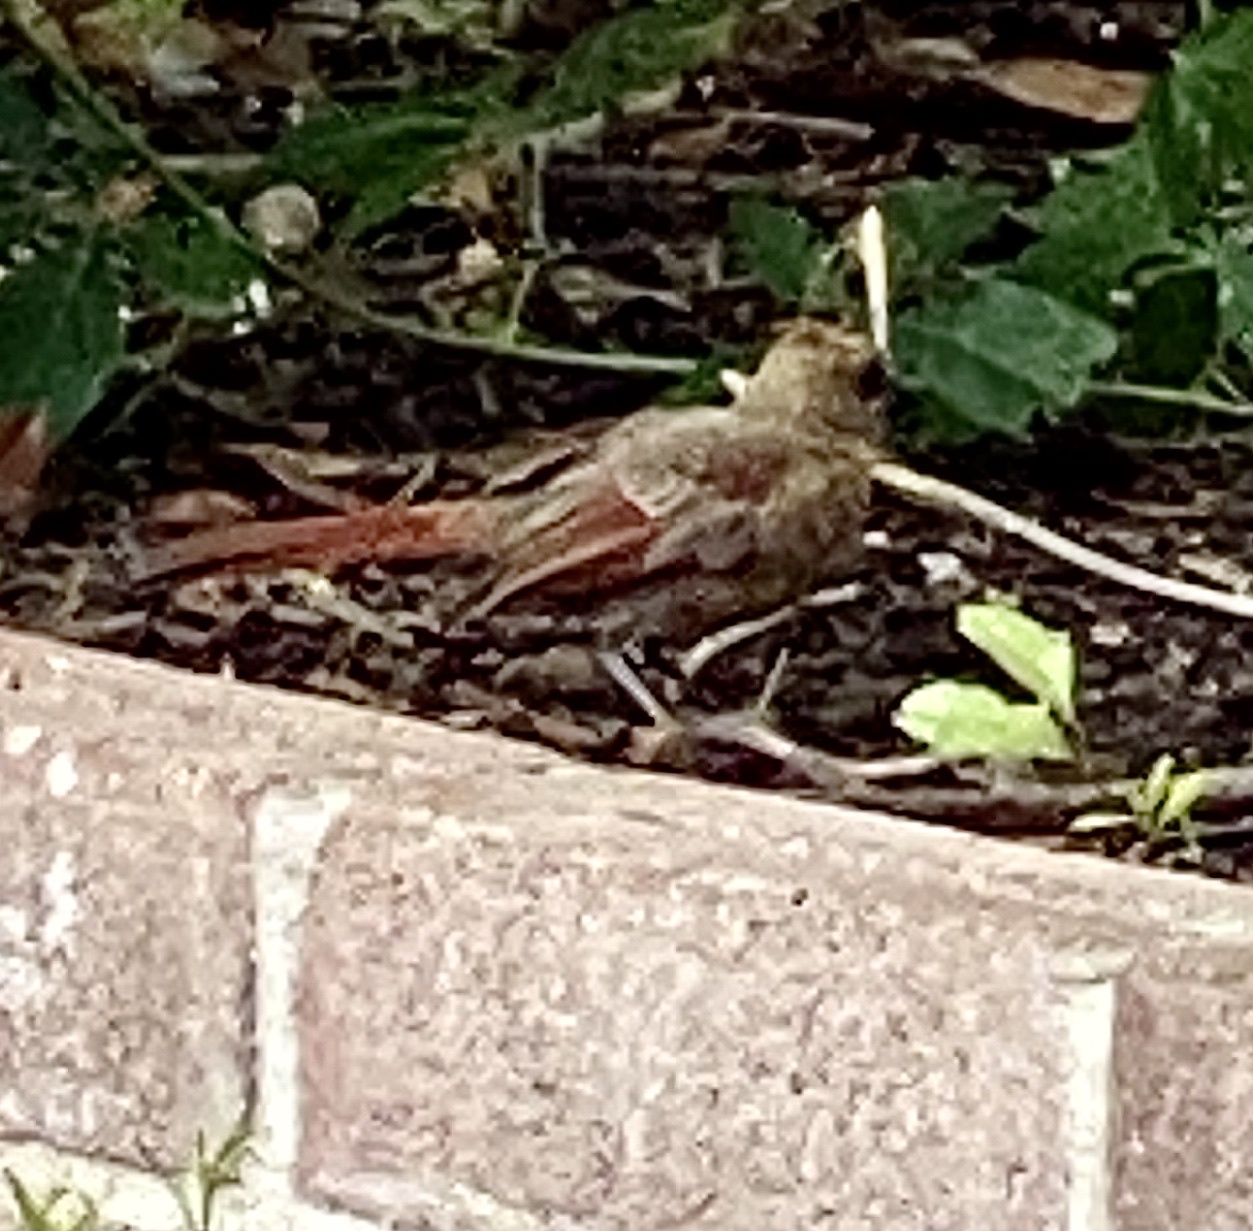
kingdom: Animalia
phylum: Chordata
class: Aves
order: Passeriformes
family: Cardinalidae
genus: Cardinalis
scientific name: Cardinalis cardinalis
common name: Northern cardinal
